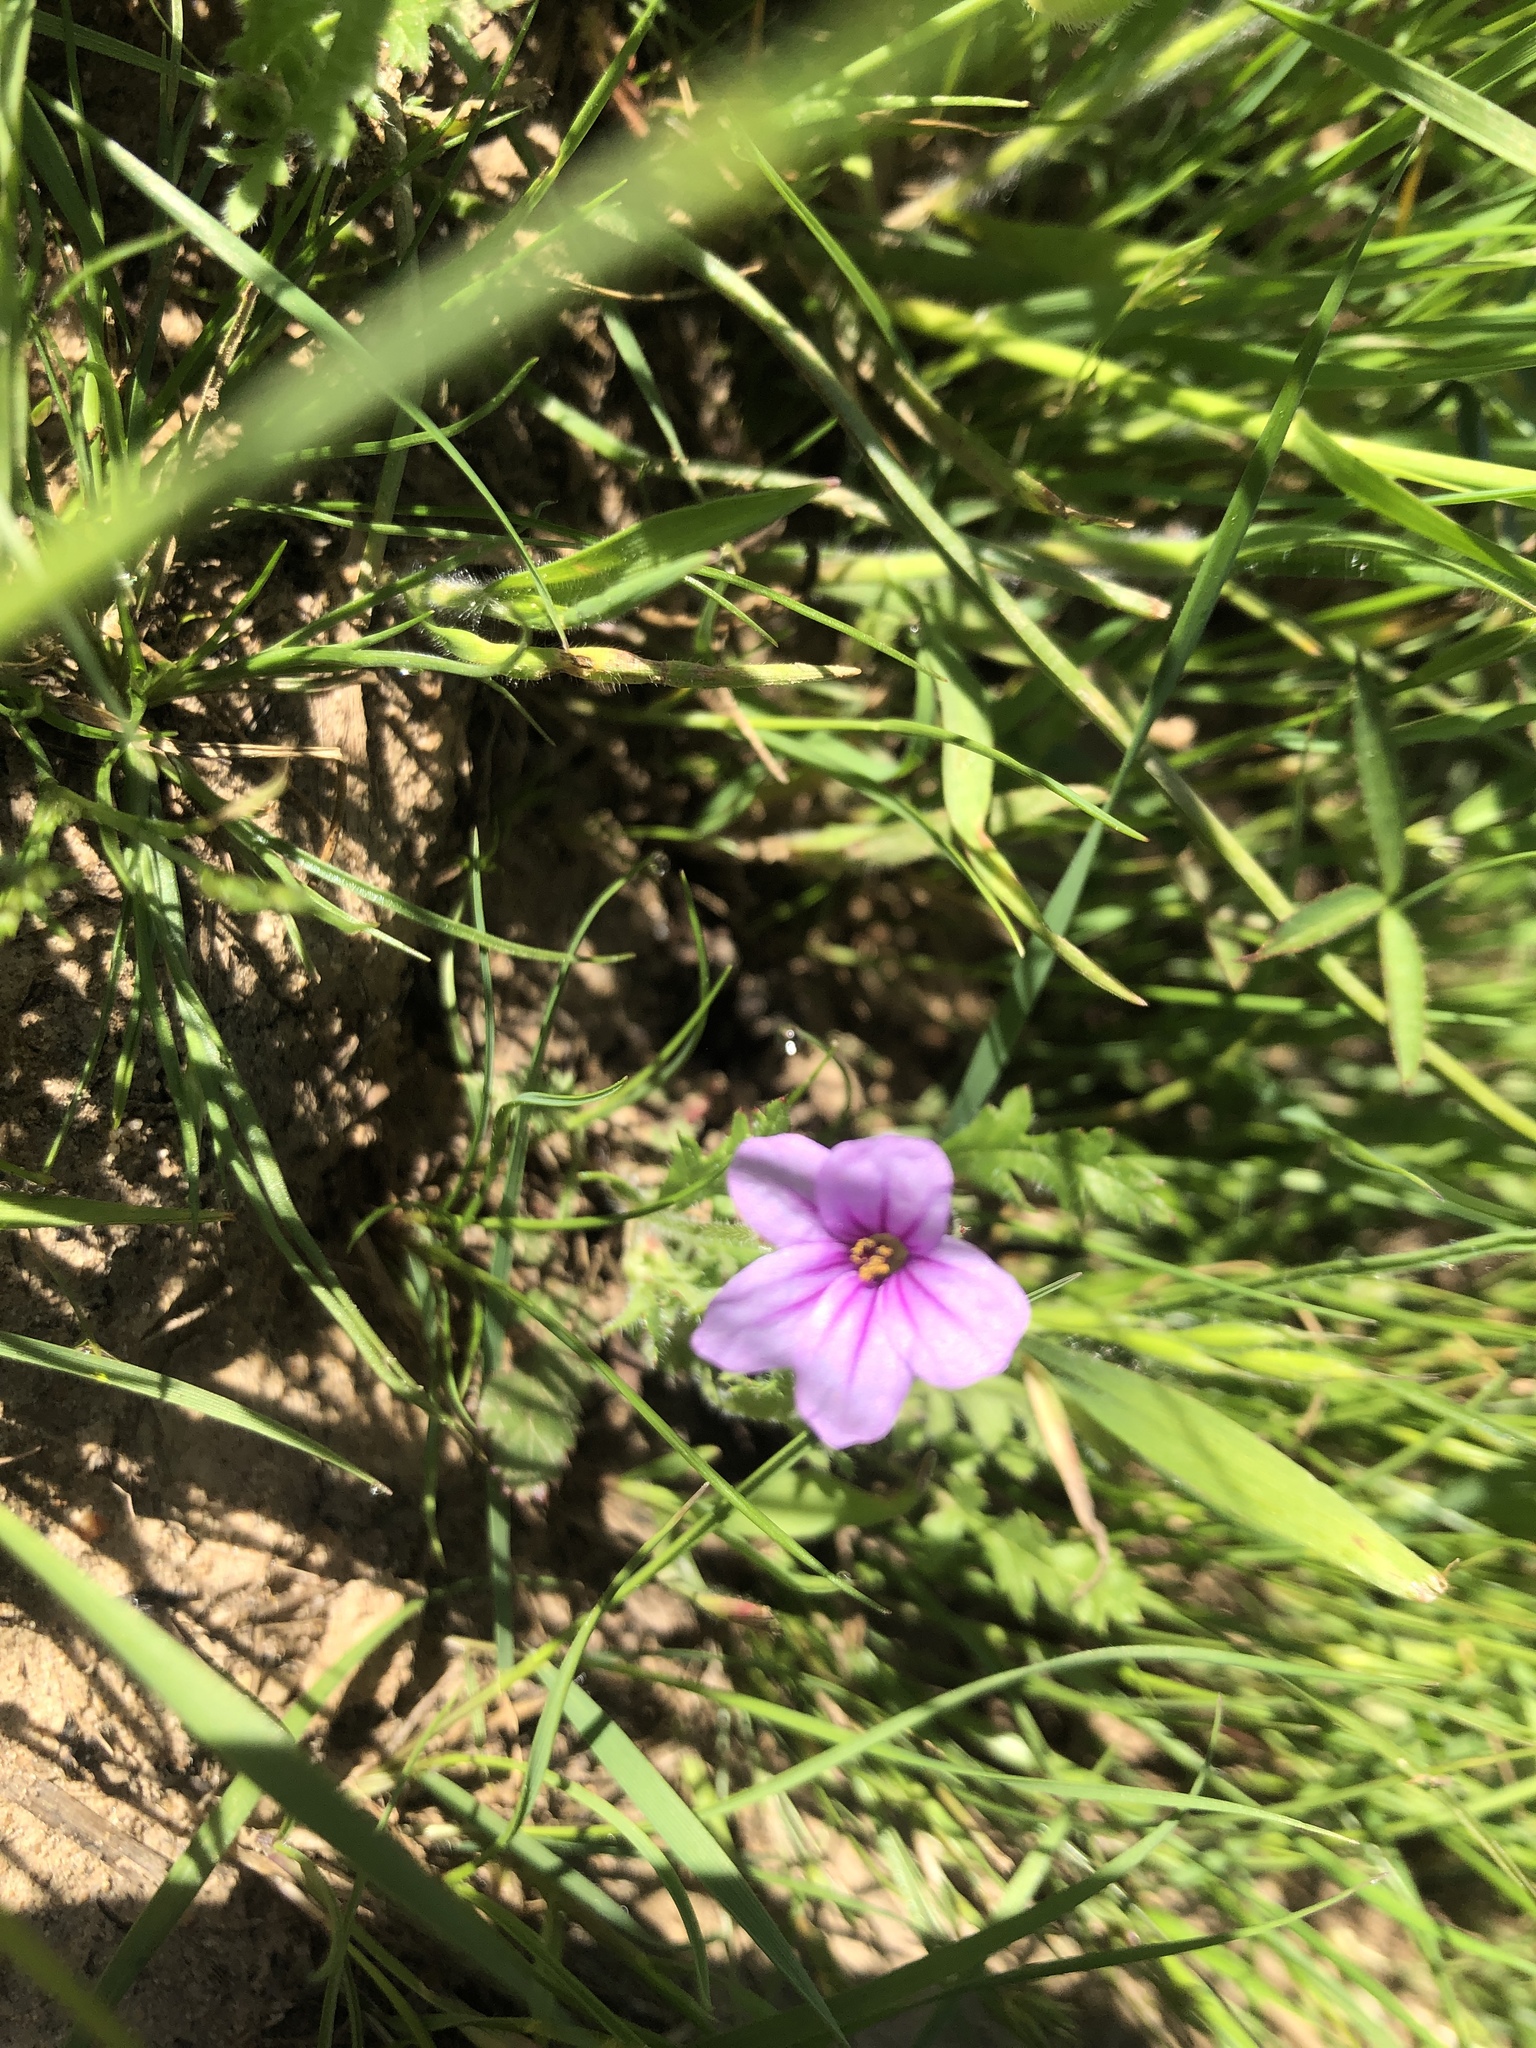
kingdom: Plantae
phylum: Tracheophyta
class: Magnoliopsida
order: Geraniales
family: Geraniaceae
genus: Erodium
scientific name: Erodium botrys
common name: Mediterranean stork's-bill
